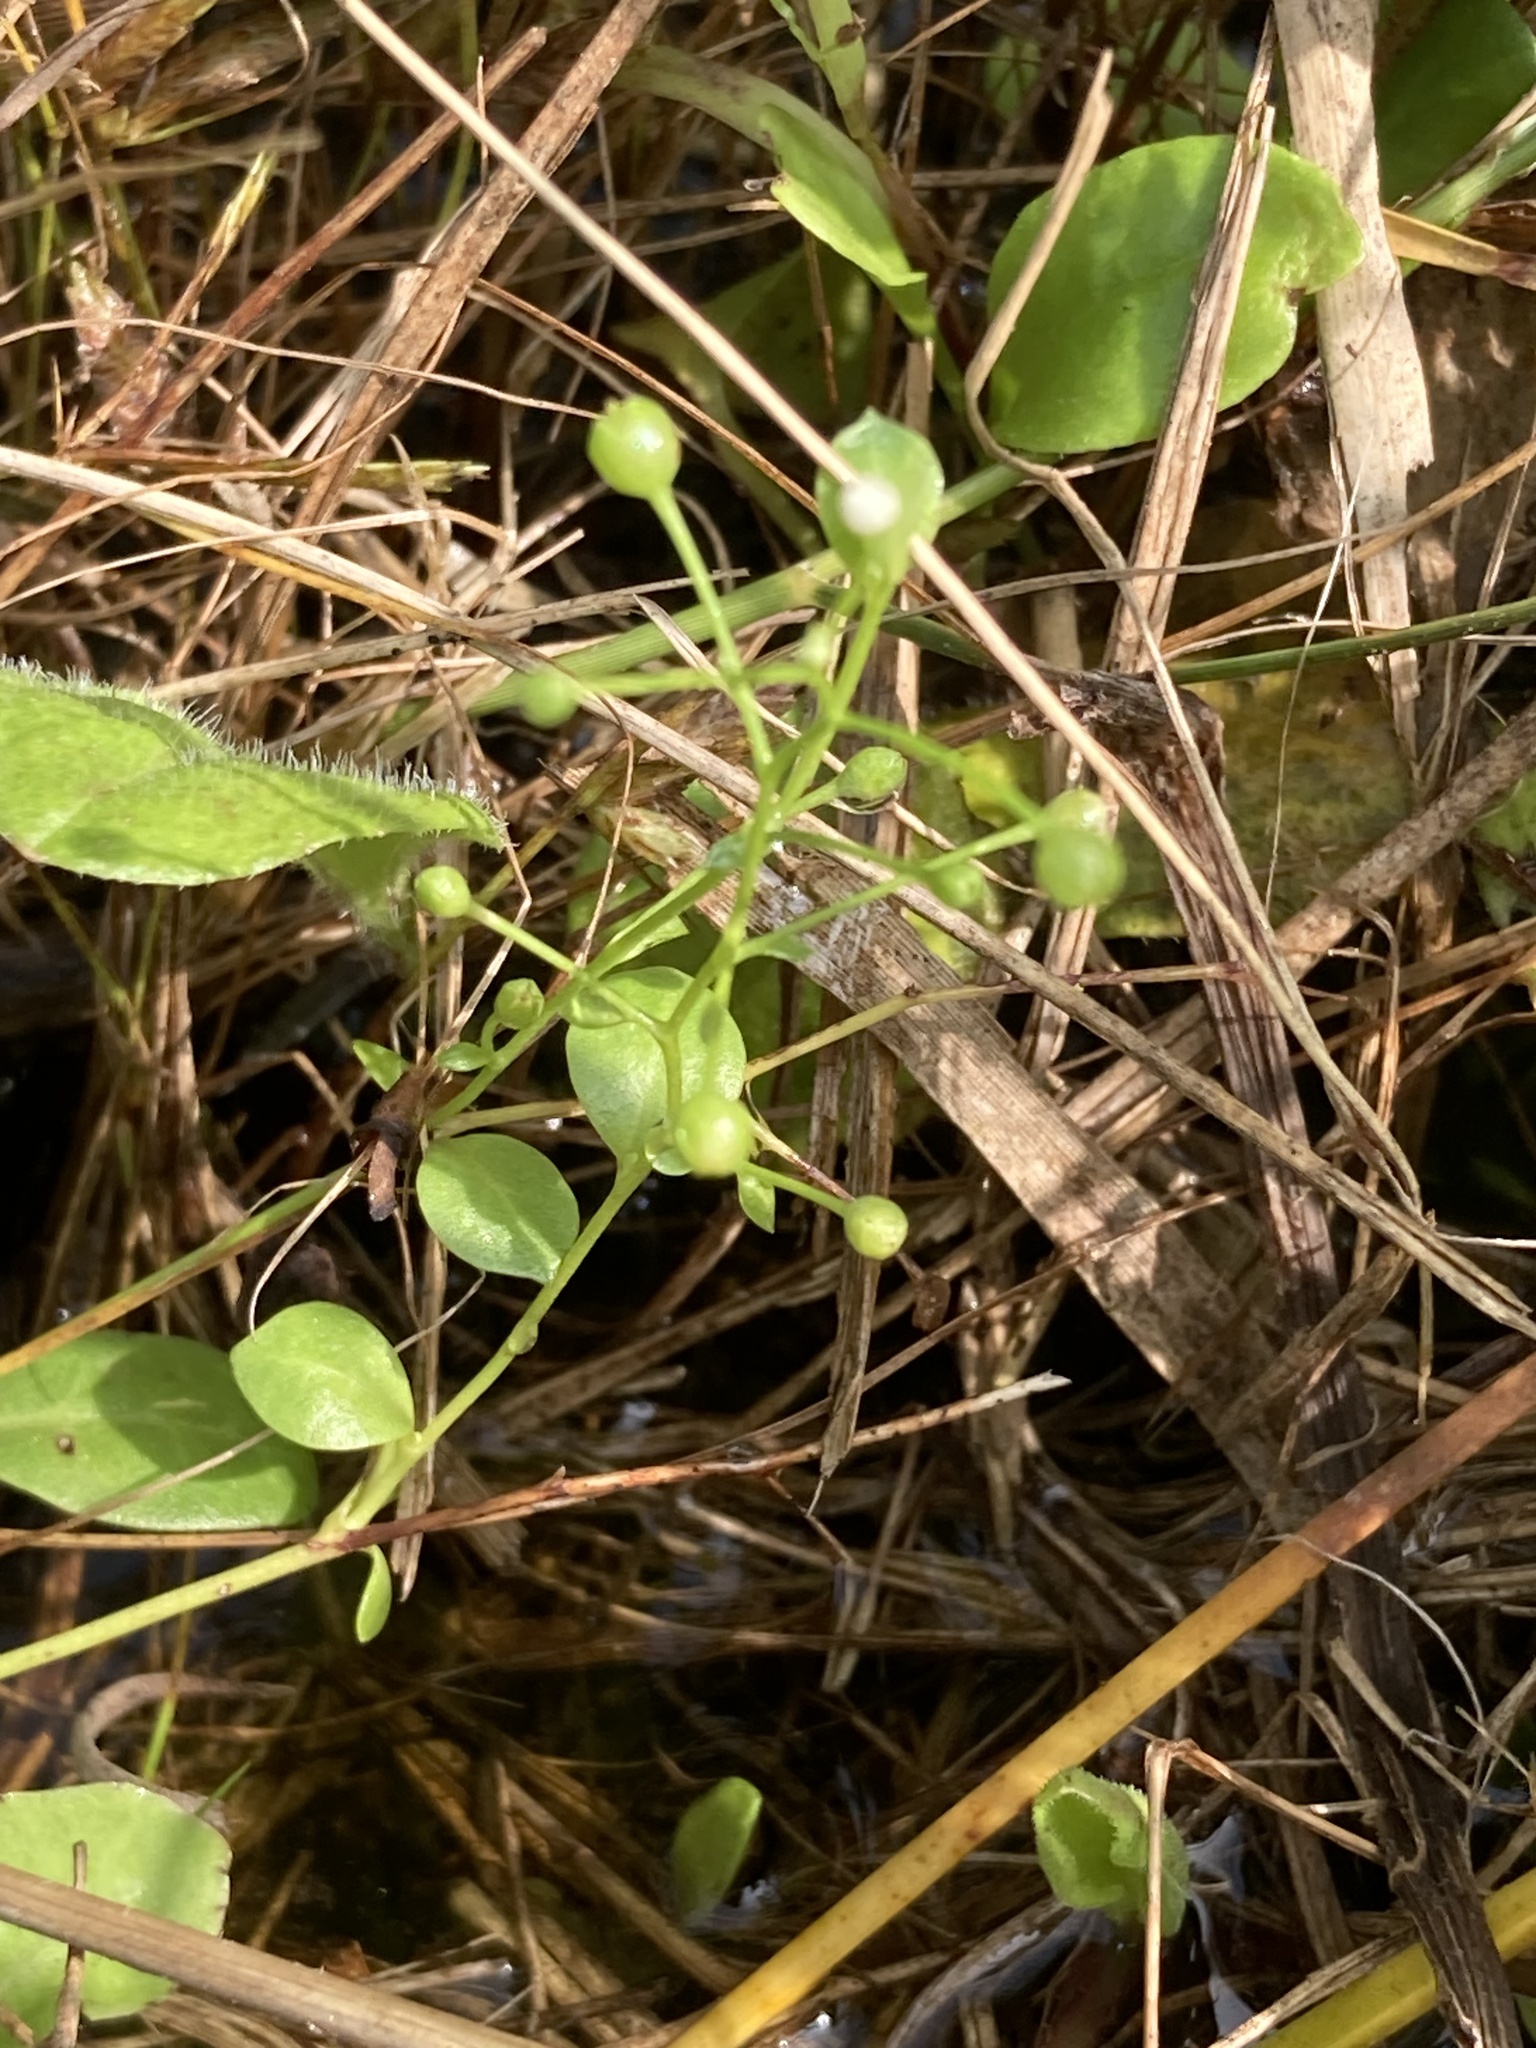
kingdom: Plantae
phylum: Tracheophyta
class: Magnoliopsida
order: Ericales
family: Primulaceae
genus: Samolus
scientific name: Samolus parviflorus
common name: False water pimpernel
